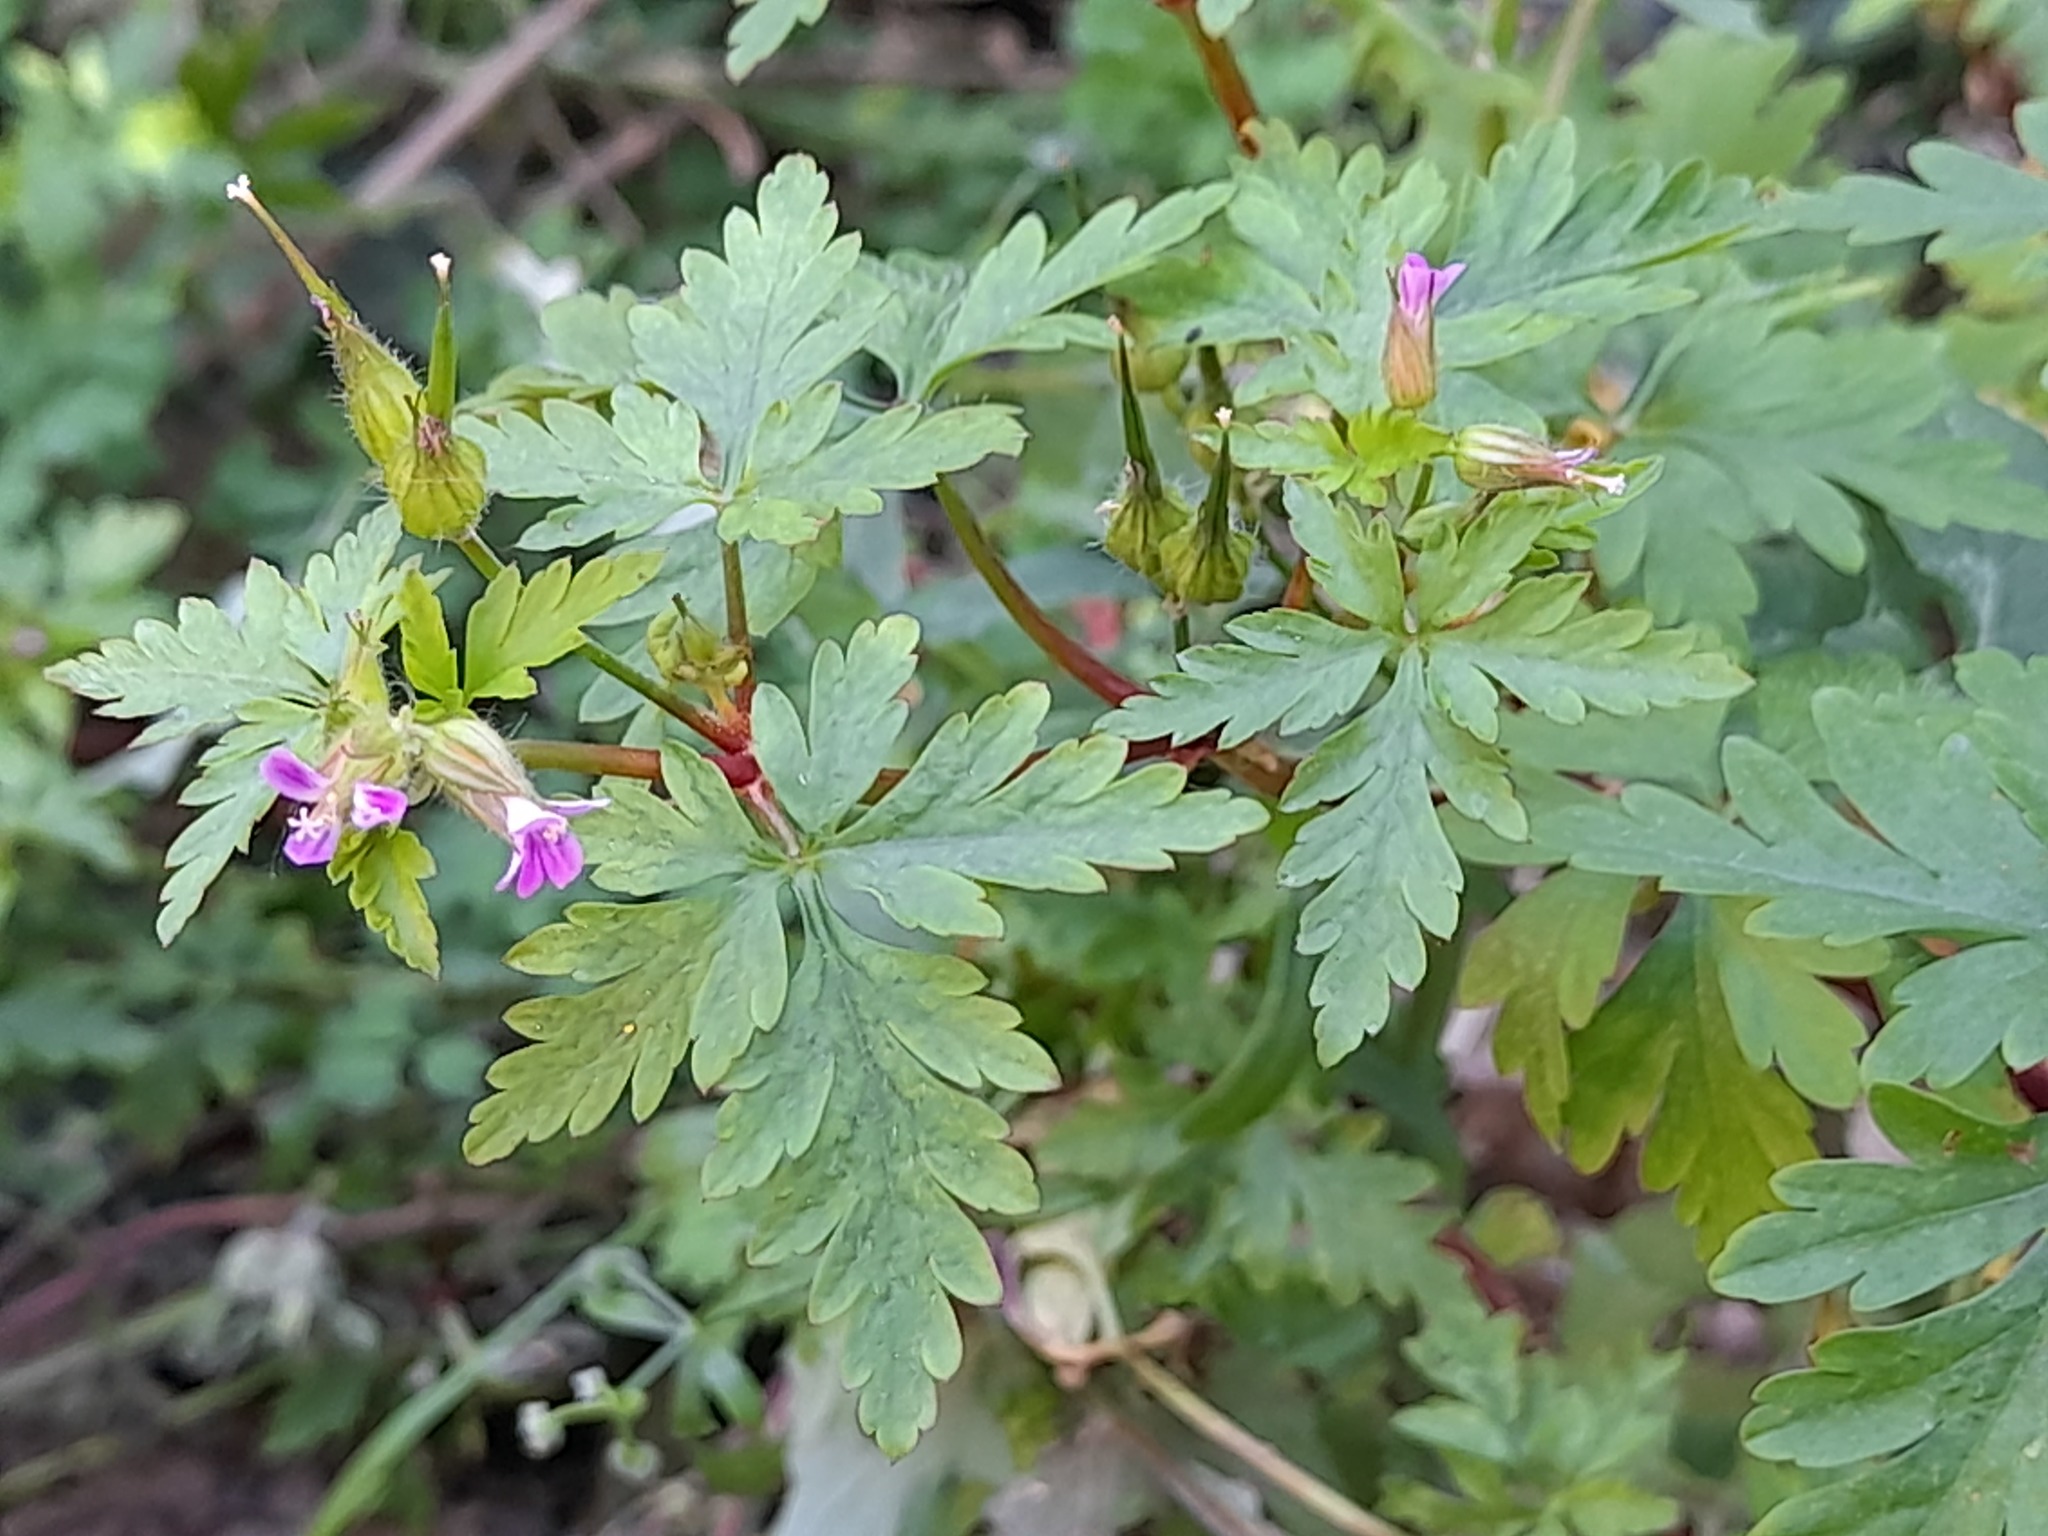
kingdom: Plantae
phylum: Tracheophyta
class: Magnoliopsida
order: Geraniales
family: Geraniaceae
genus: Geranium
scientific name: Geranium purpureum
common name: Little-robin
